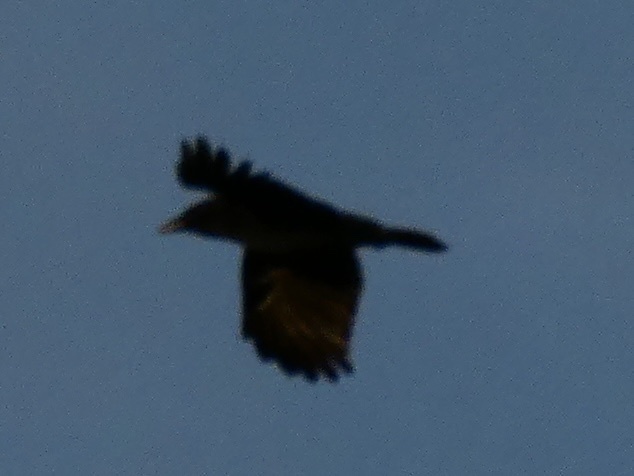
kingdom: Animalia
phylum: Chordata
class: Aves
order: Passeriformes
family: Corvidae
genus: Corvus
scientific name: Corvus corone
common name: Carrion crow
